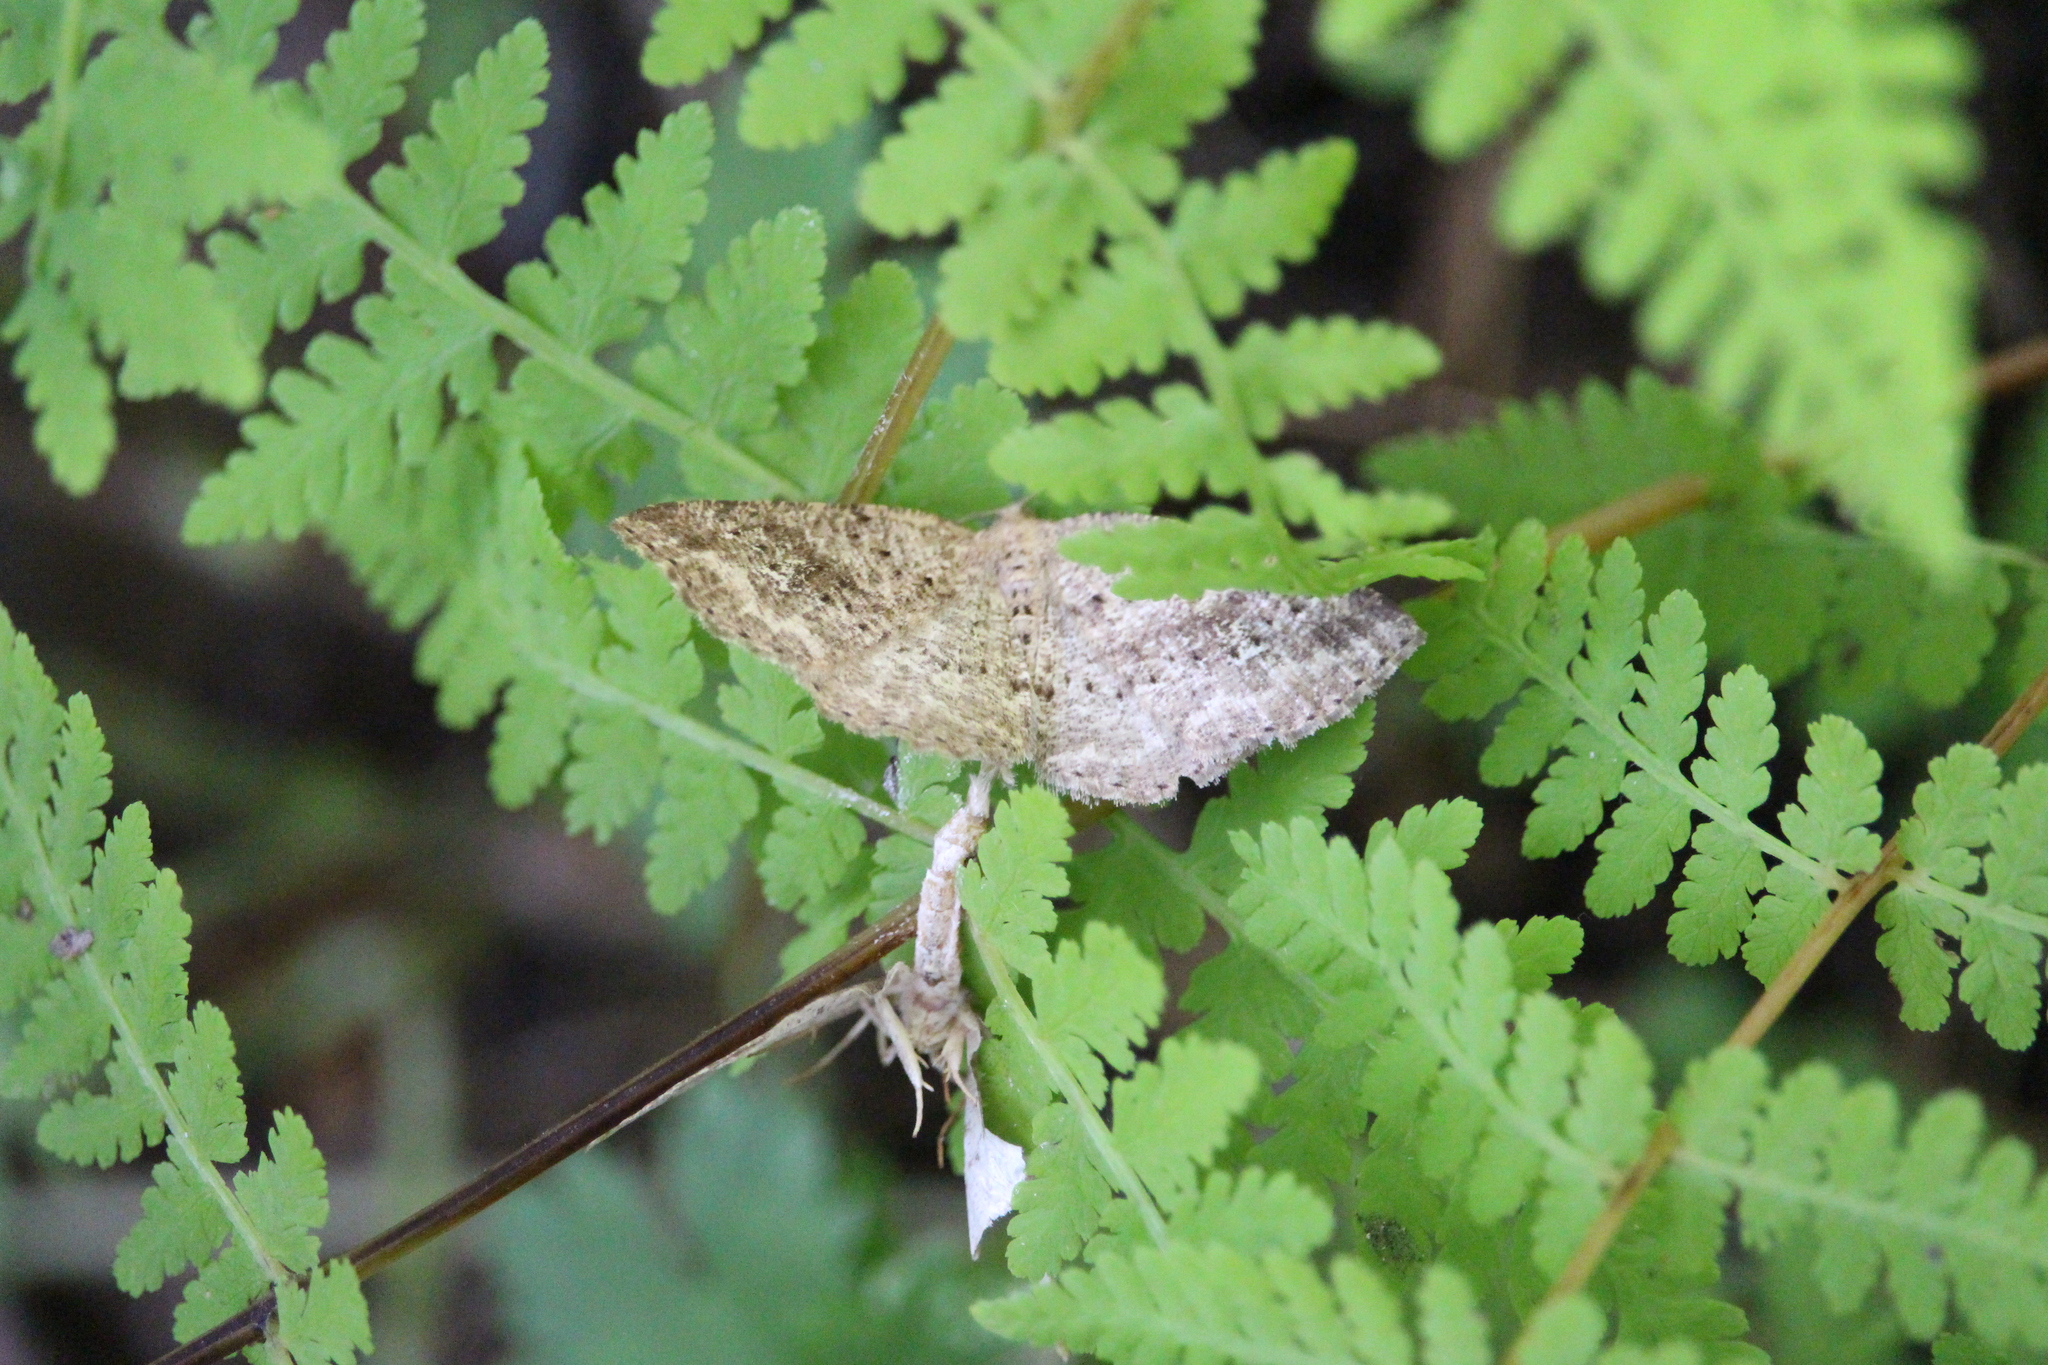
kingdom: Animalia
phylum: Arthropoda
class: Insecta
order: Lepidoptera
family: Geometridae
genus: Homochlodes
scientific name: Homochlodes fritillaria
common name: Pale homochlodes
